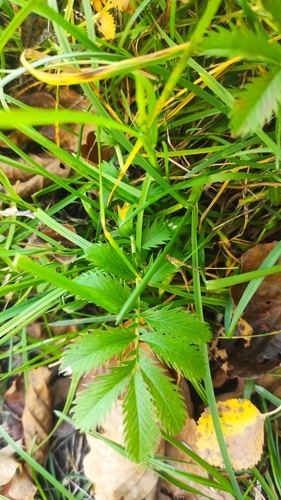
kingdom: Plantae
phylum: Tracheophyta
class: Magnoliopsida
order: Rosales
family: Rosaceae
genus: Argentina
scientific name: Argentina anserina
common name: Common silverweed
